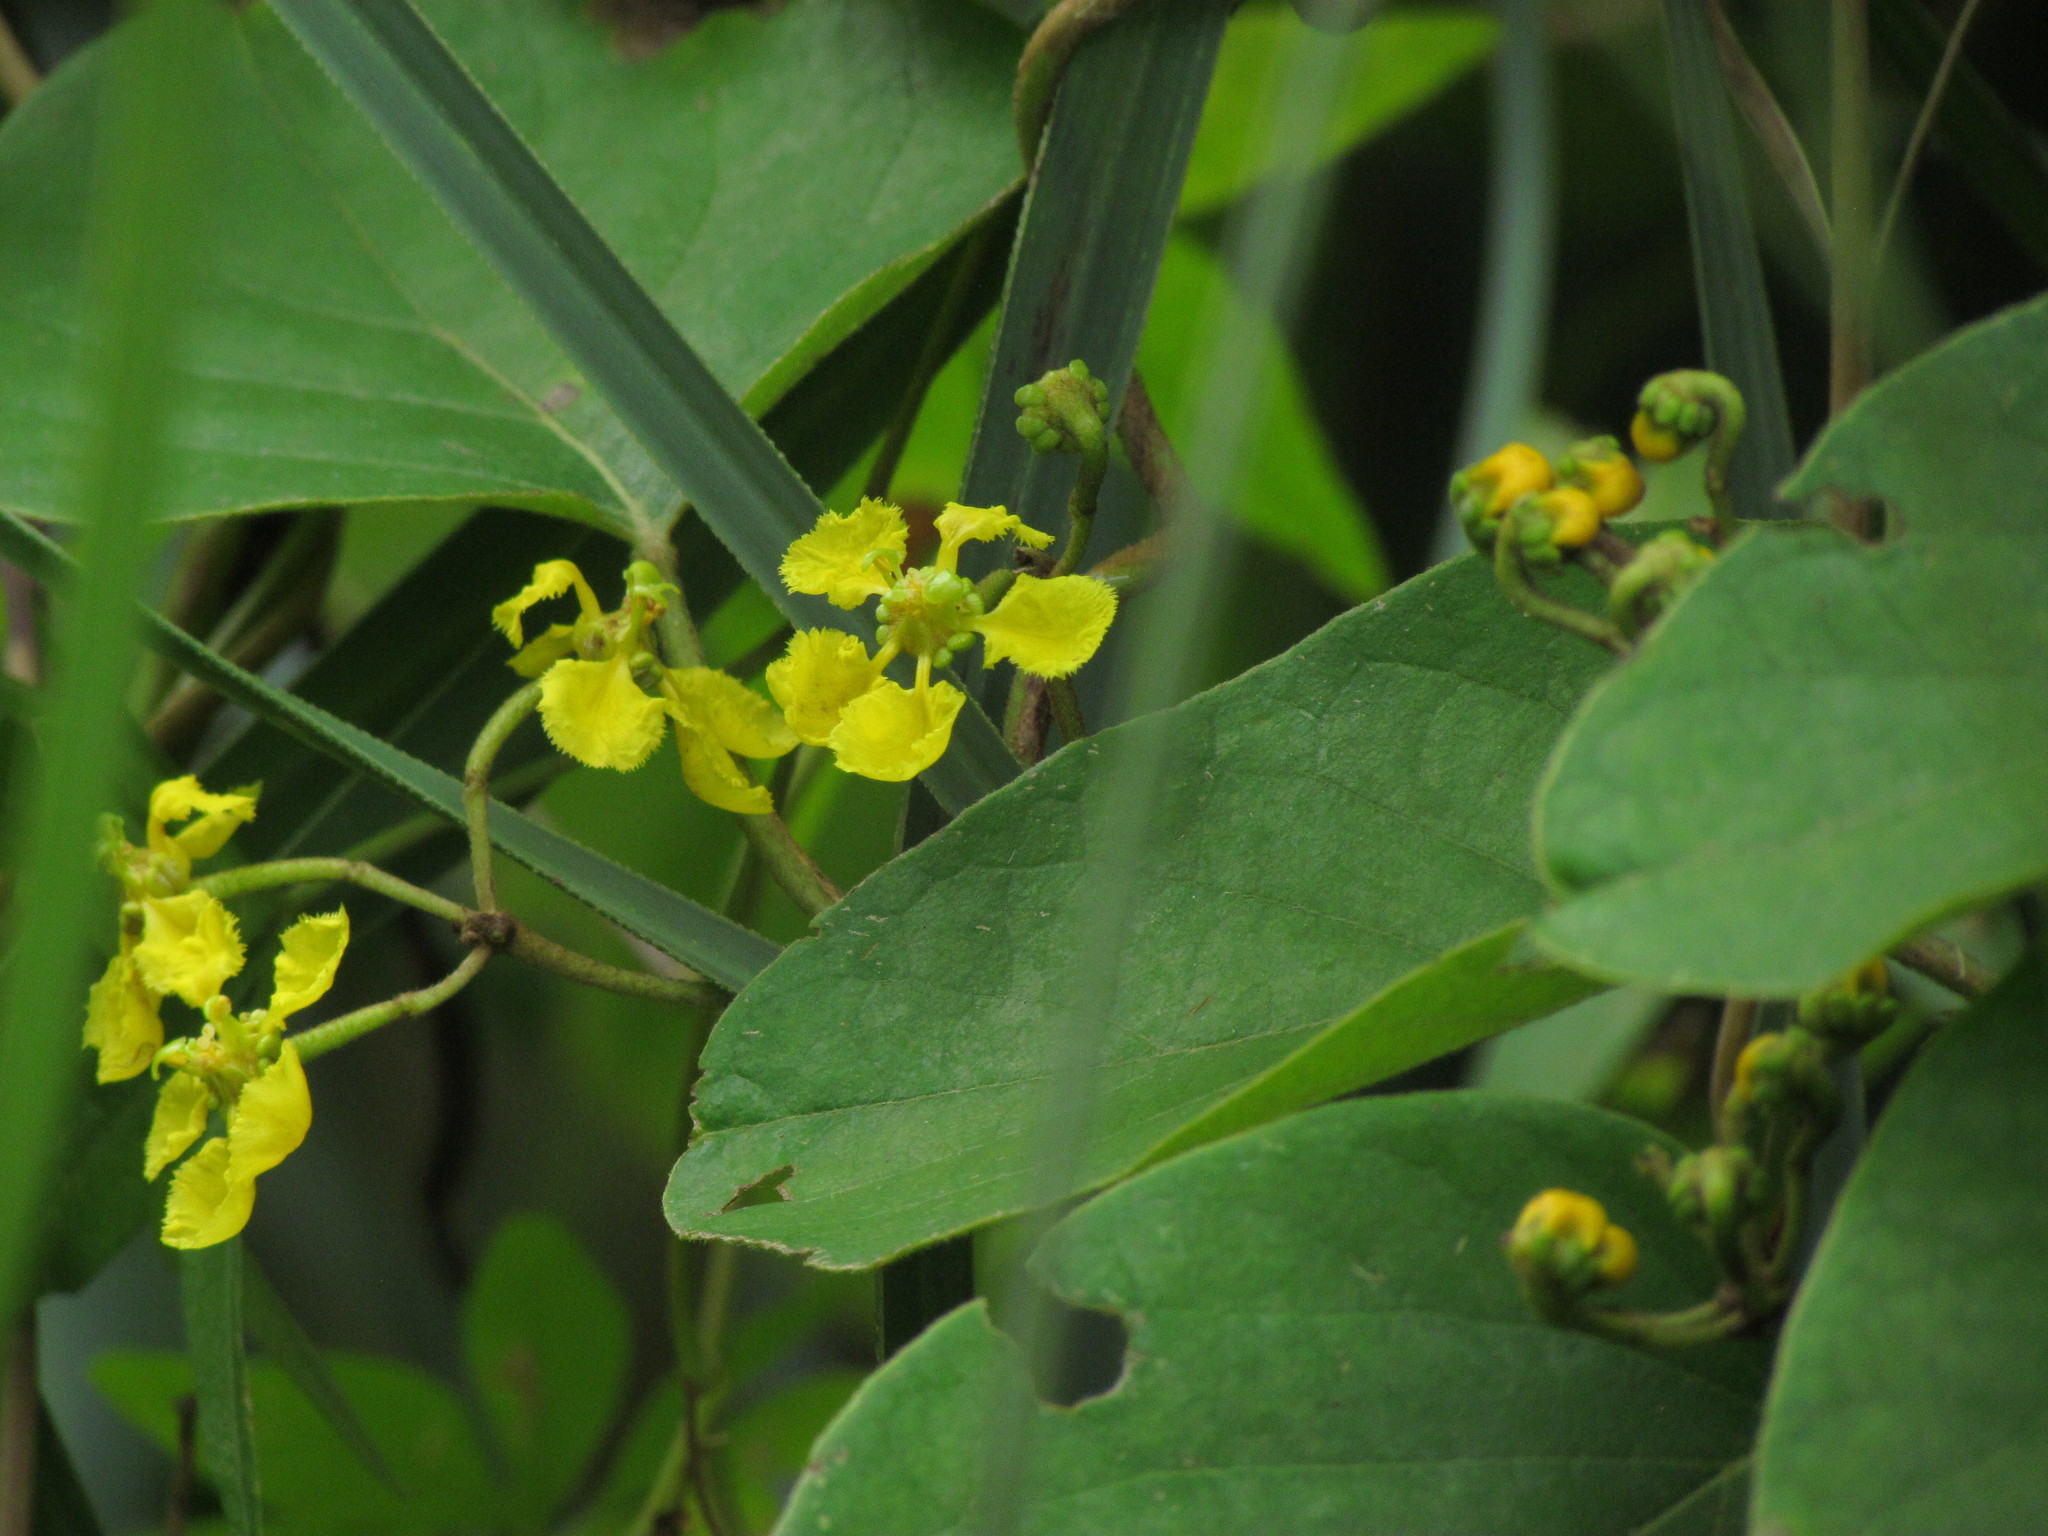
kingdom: Plantae
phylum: Tracheophyta
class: Magnoliopsida
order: Malpighiales
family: Malpighiaceae
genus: Stigmaphyllon
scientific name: Stigmaphyllon bonariense
